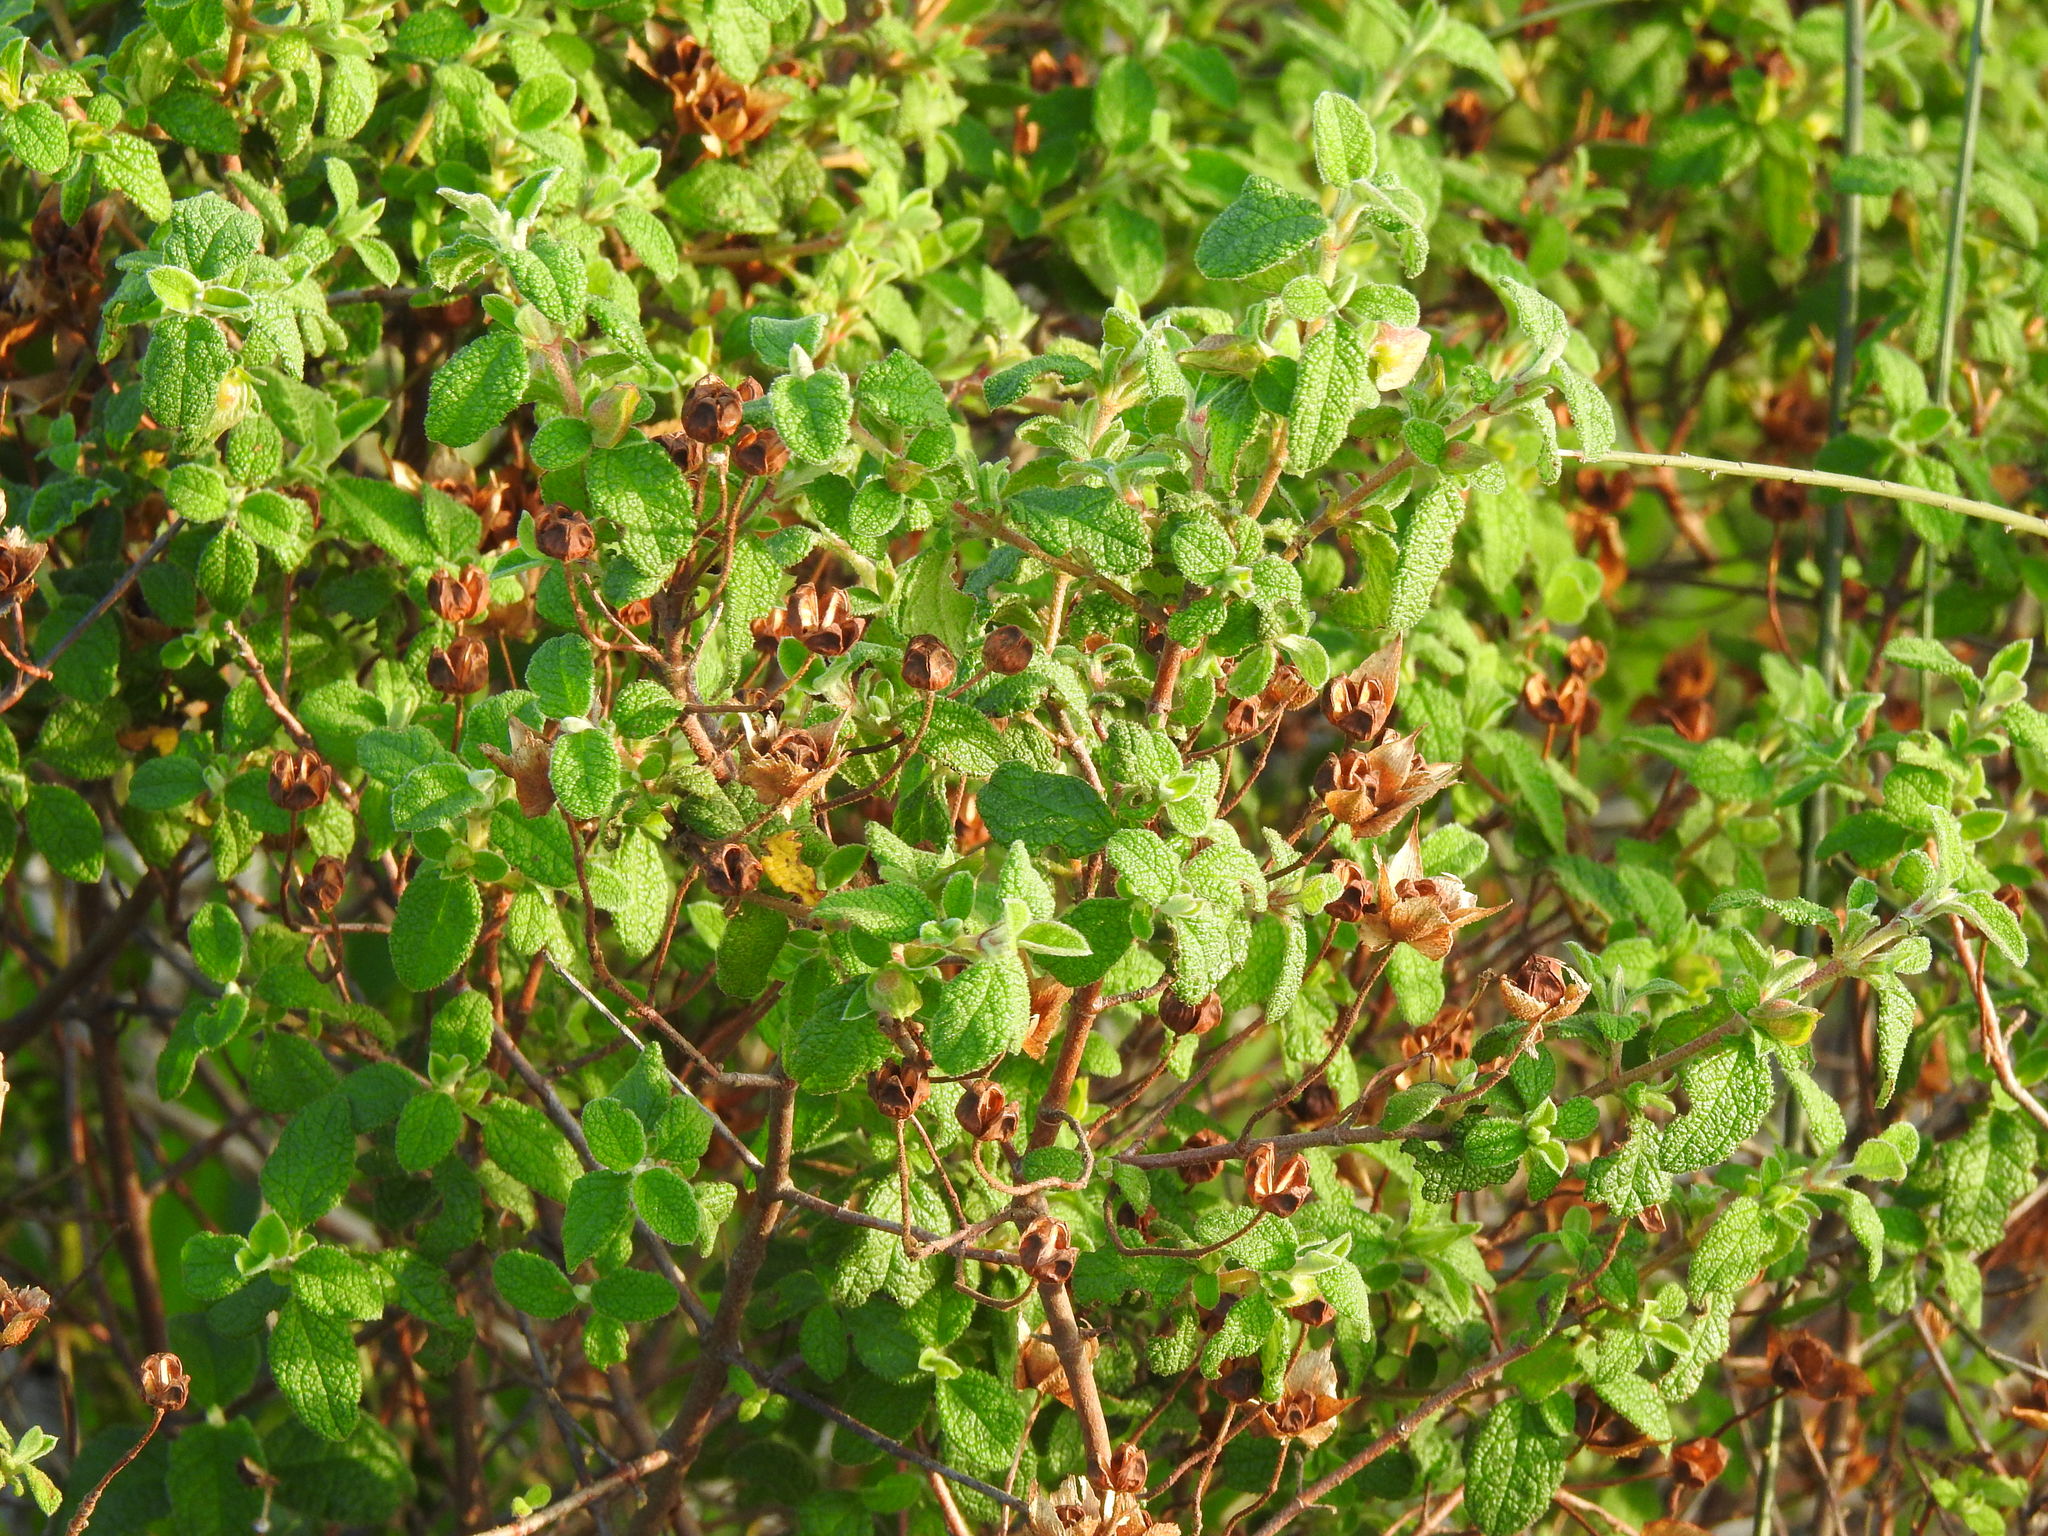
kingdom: Plantae
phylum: Tracheophyta
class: Magnoliopsida
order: Malvales
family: Cistaceae
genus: Cistus
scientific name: Cistus salviifolius
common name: Salvia cistus
